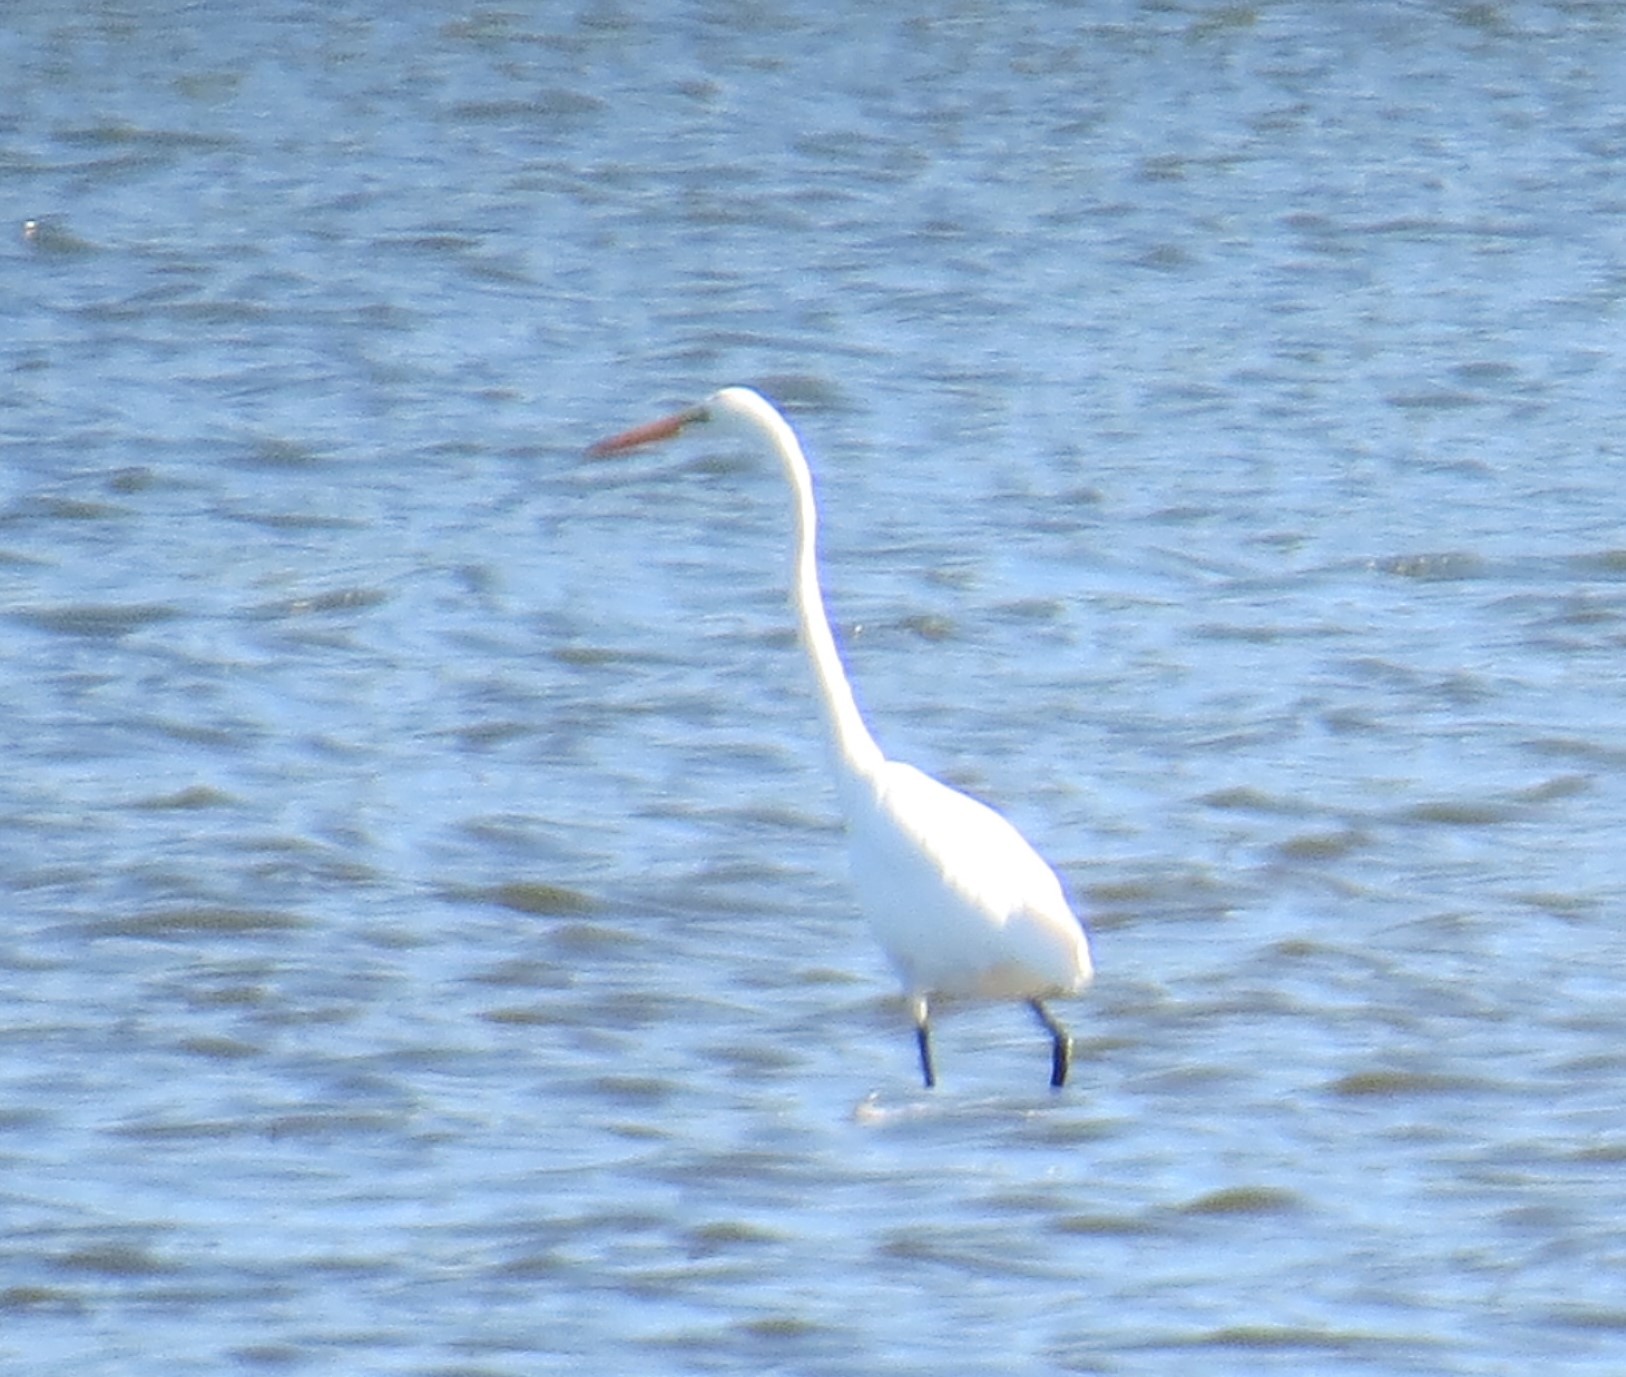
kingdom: Animalia
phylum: Chordata
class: Aves
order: Pelecaniformes
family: Ardeidae
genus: Ardea
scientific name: Ardea alba
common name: Great egret
